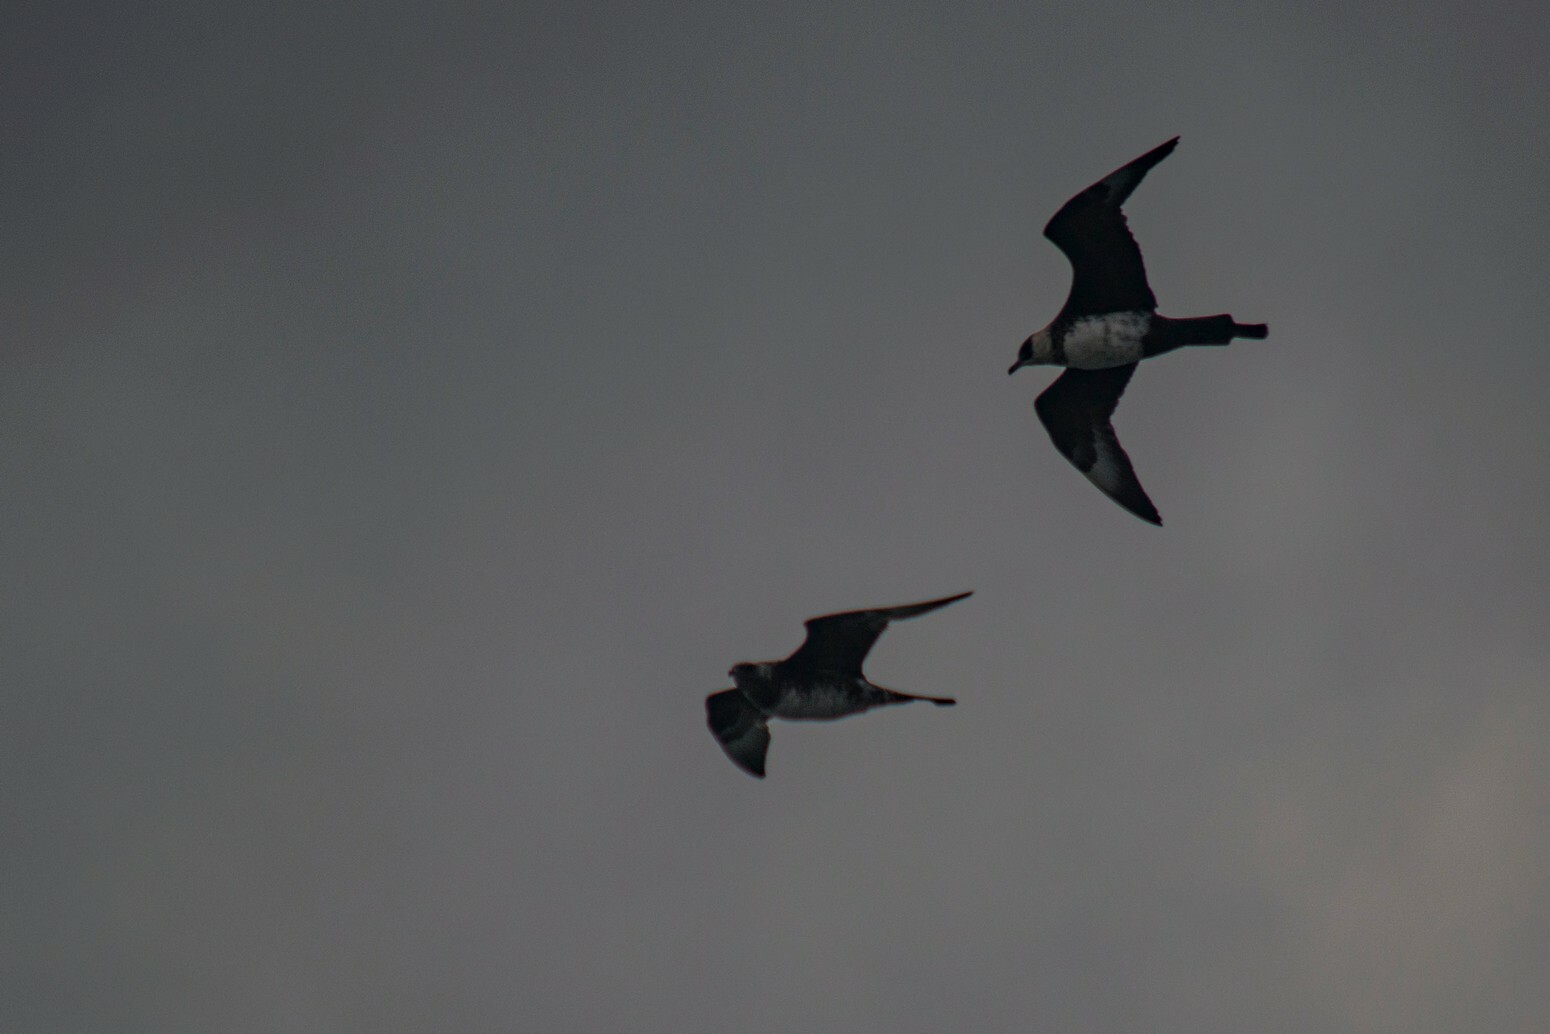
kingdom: Animalia
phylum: Chordata
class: Aves
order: Charadriiformes
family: Stercorariidae
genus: Stercorarius
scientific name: Stercorarius pomarinus
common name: Pomarine jaeger
